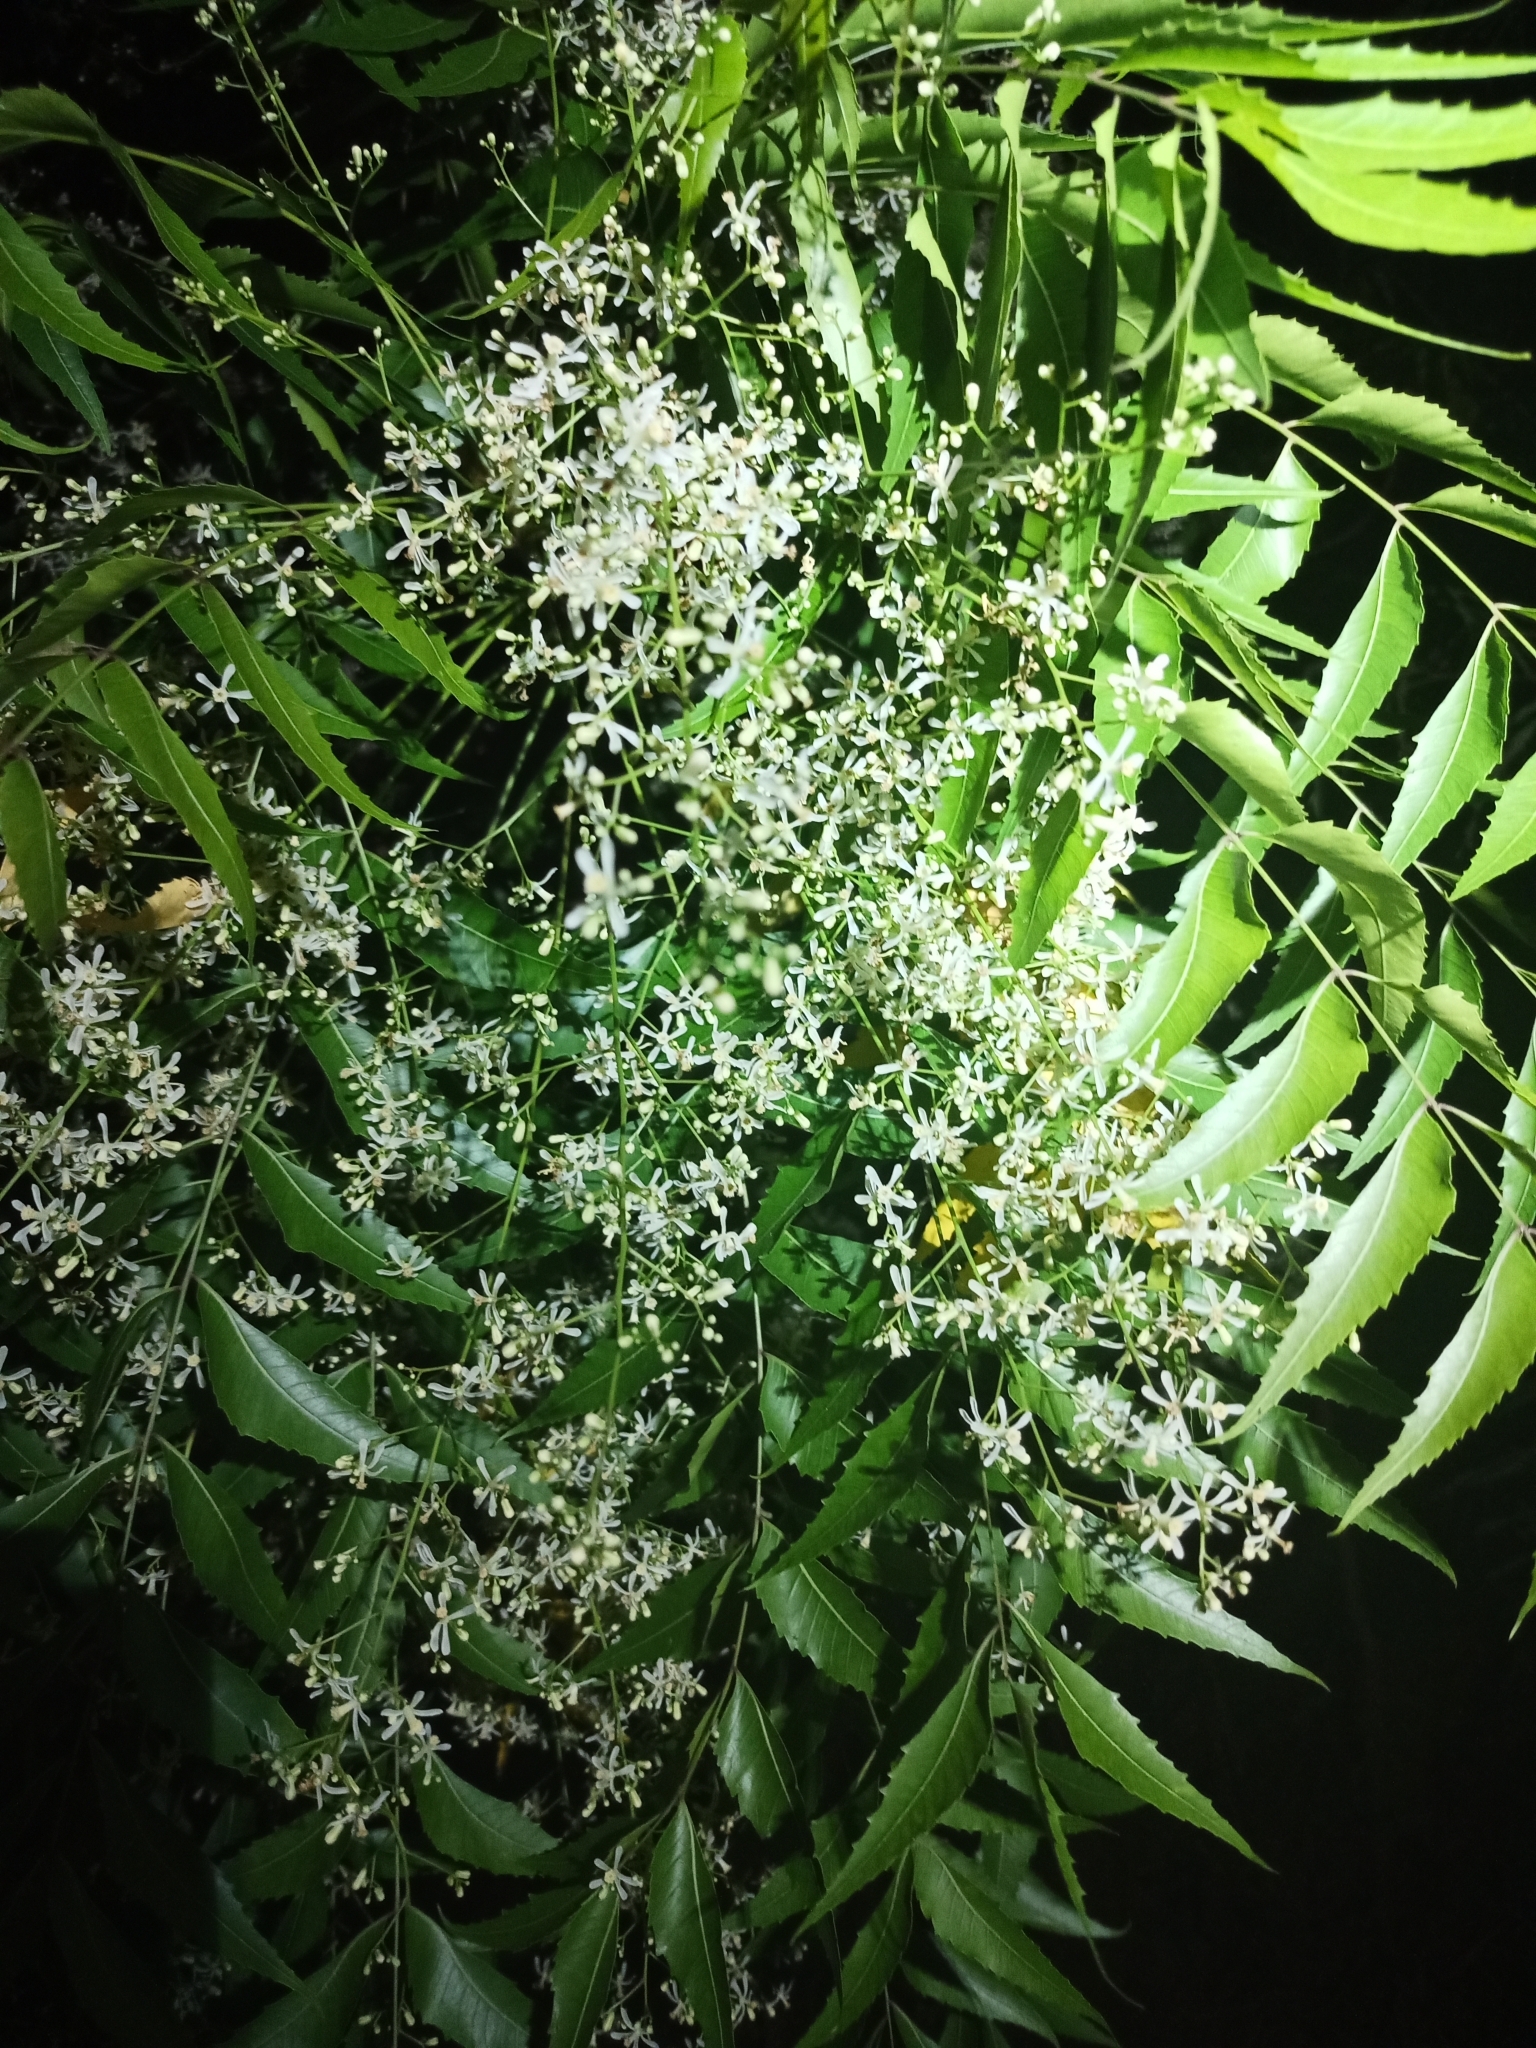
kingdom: Plantae
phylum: Tracheophyta
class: Magnoliopsida
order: Sapindales
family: Meliaceae
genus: Azadirachta
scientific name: Azadirachta indica
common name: Neem
